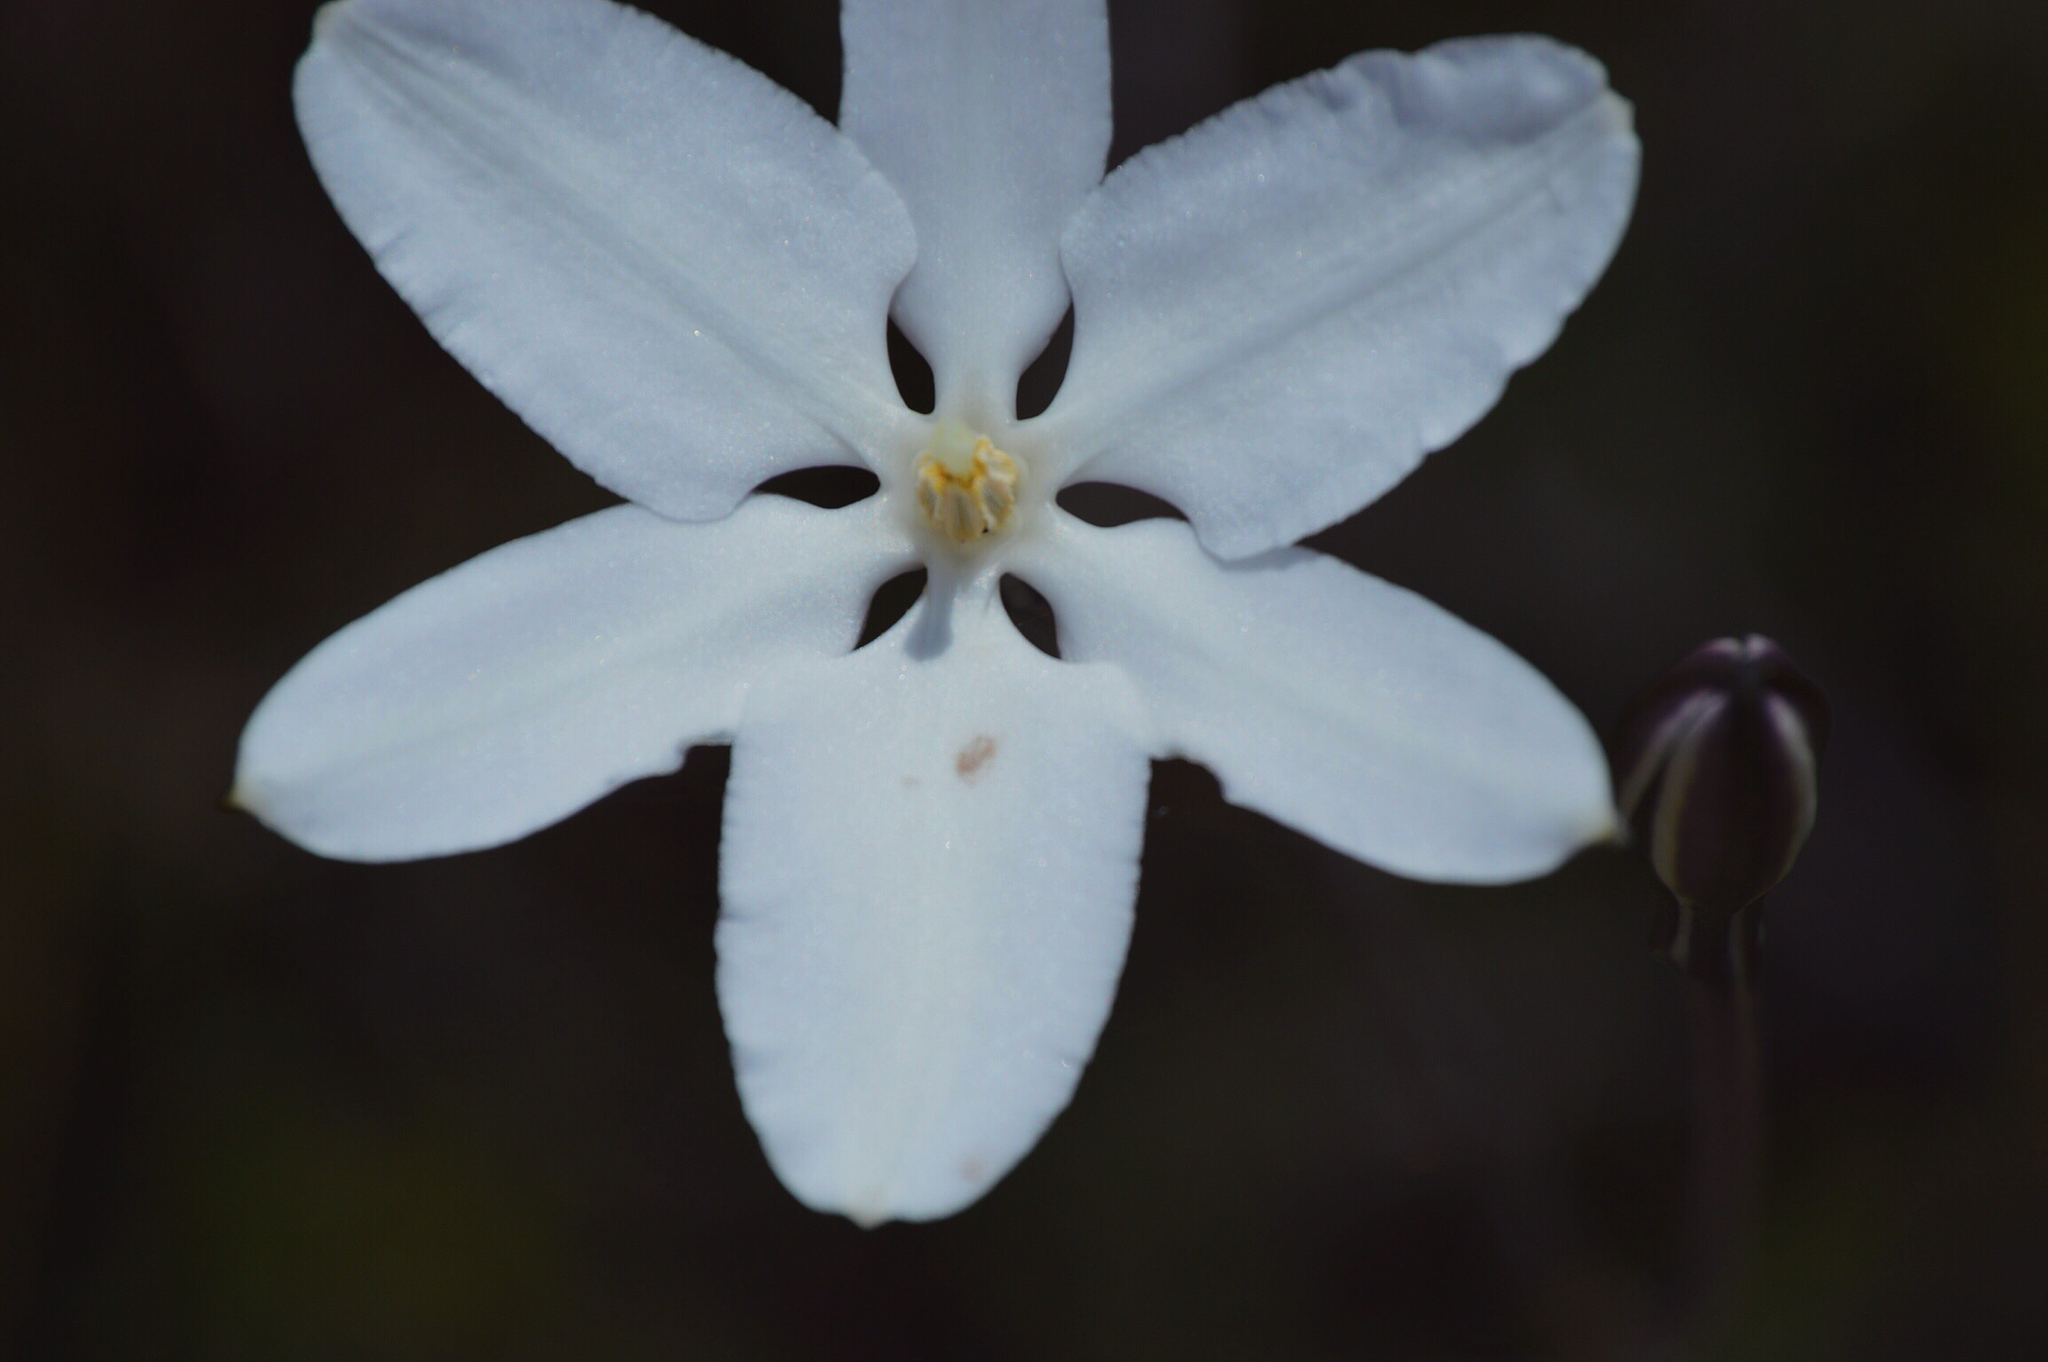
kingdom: Plantae
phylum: Tracheophyta
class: Liliopsida
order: Asparagales
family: Asparagaceae
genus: Milla
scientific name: Milla biflora
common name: Mexican-star
